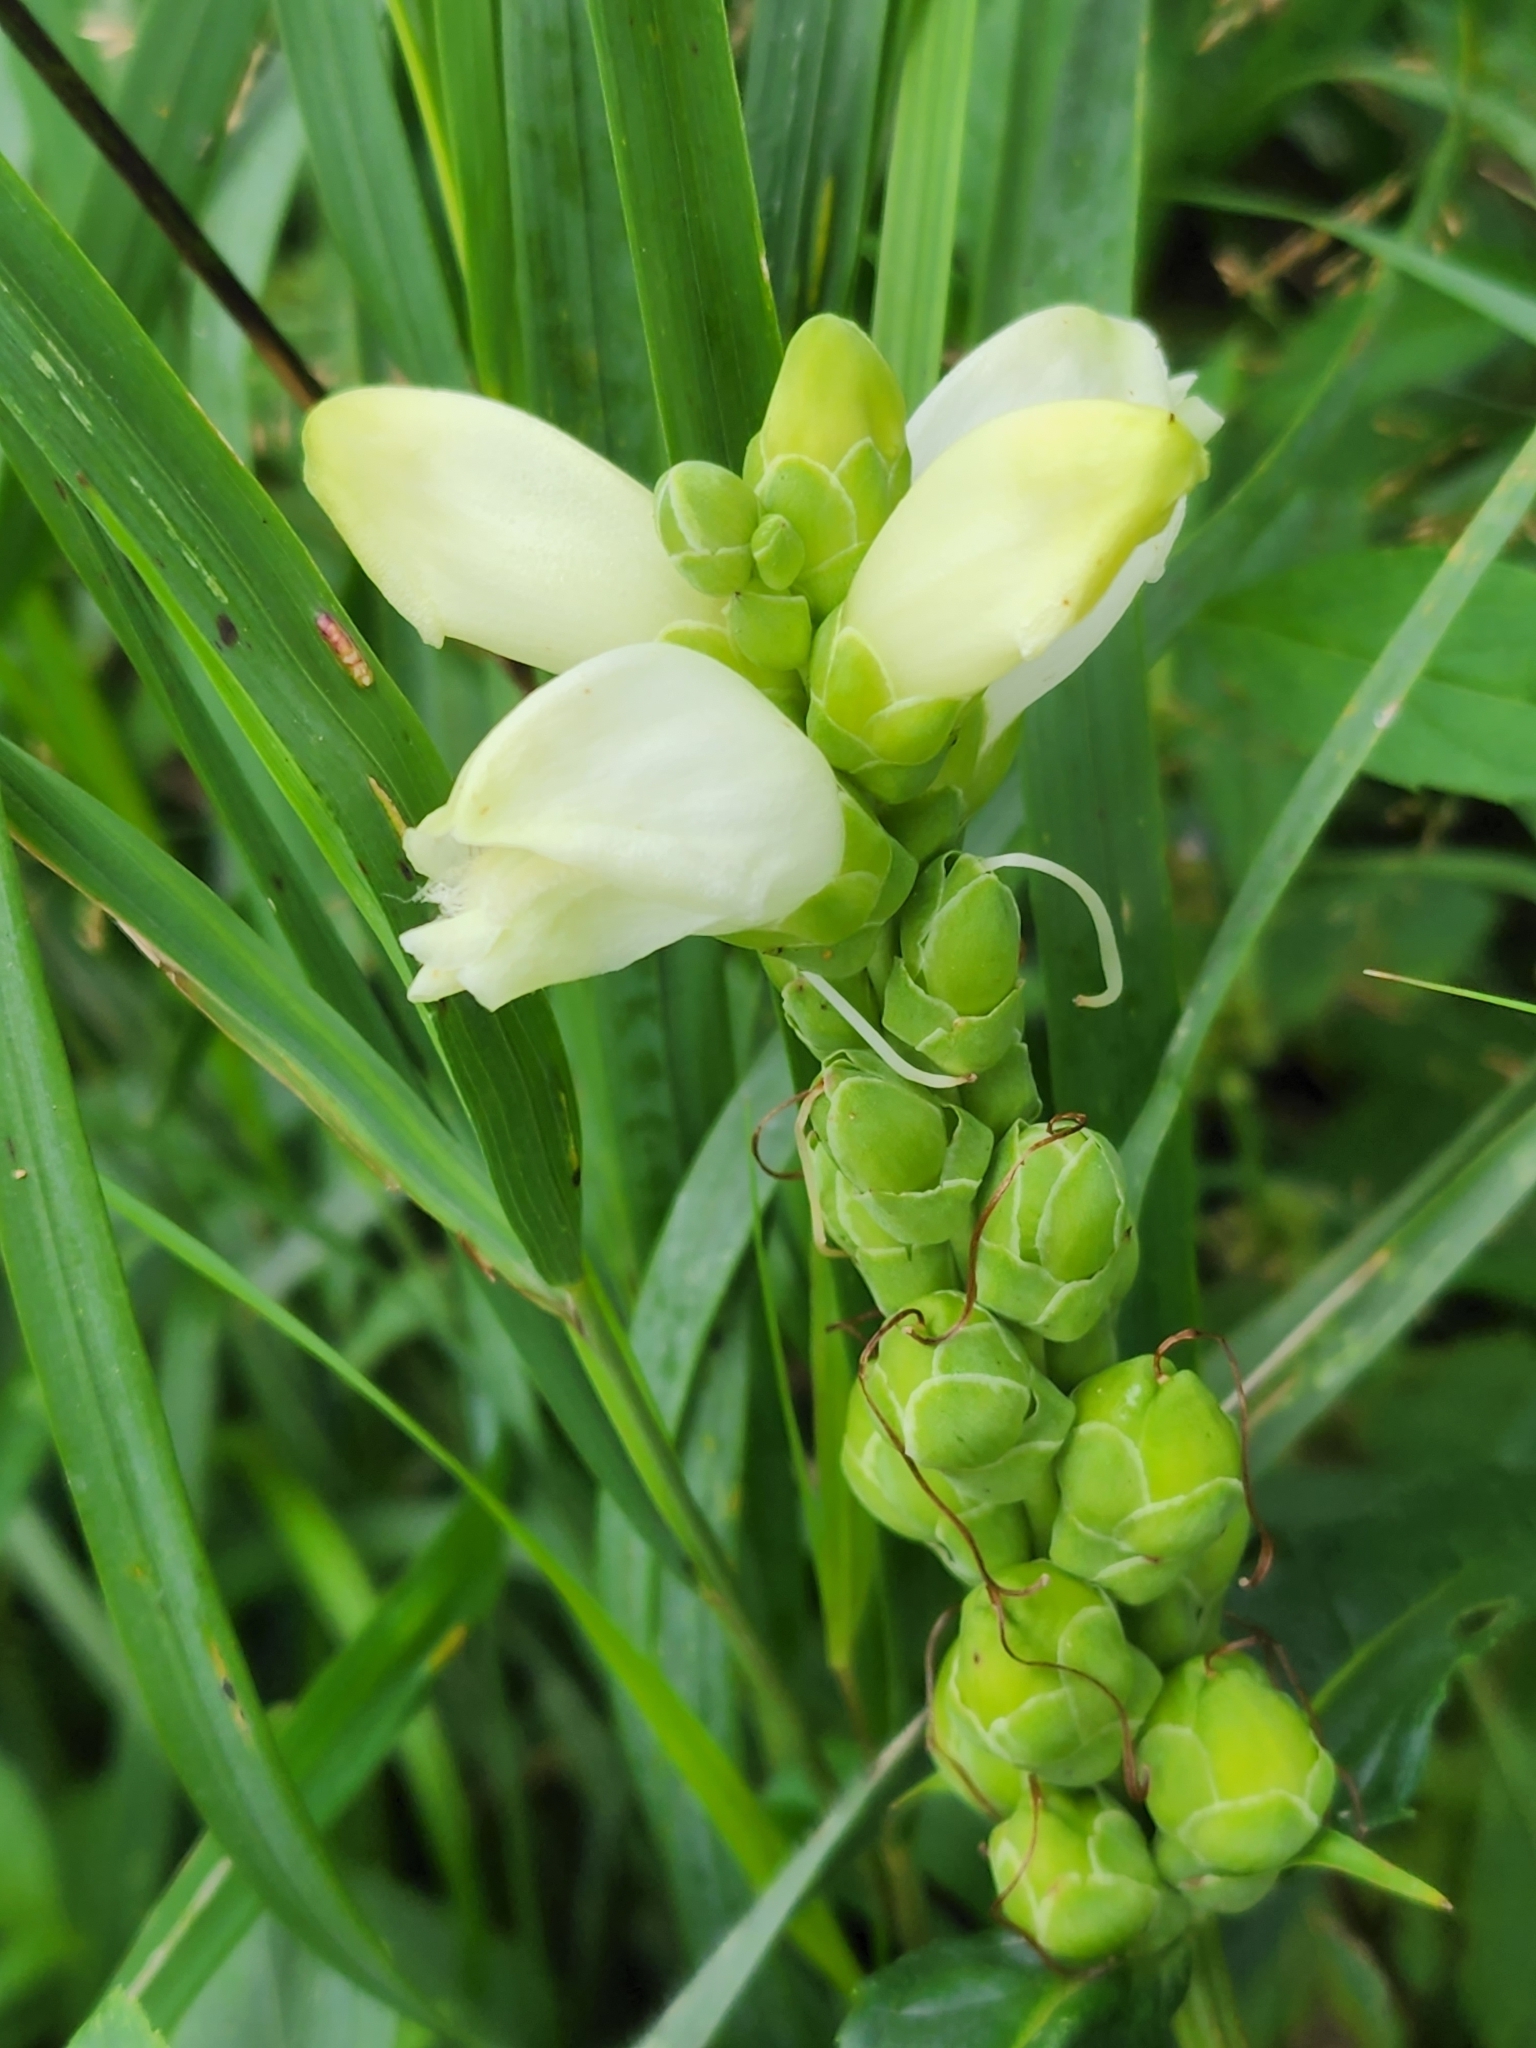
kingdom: Plantae
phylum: Tracheophyta
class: Magnoliopsida
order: Lamiales
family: Plantaginaceae
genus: Chelone
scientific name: Chelone glabra
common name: Snakehead
